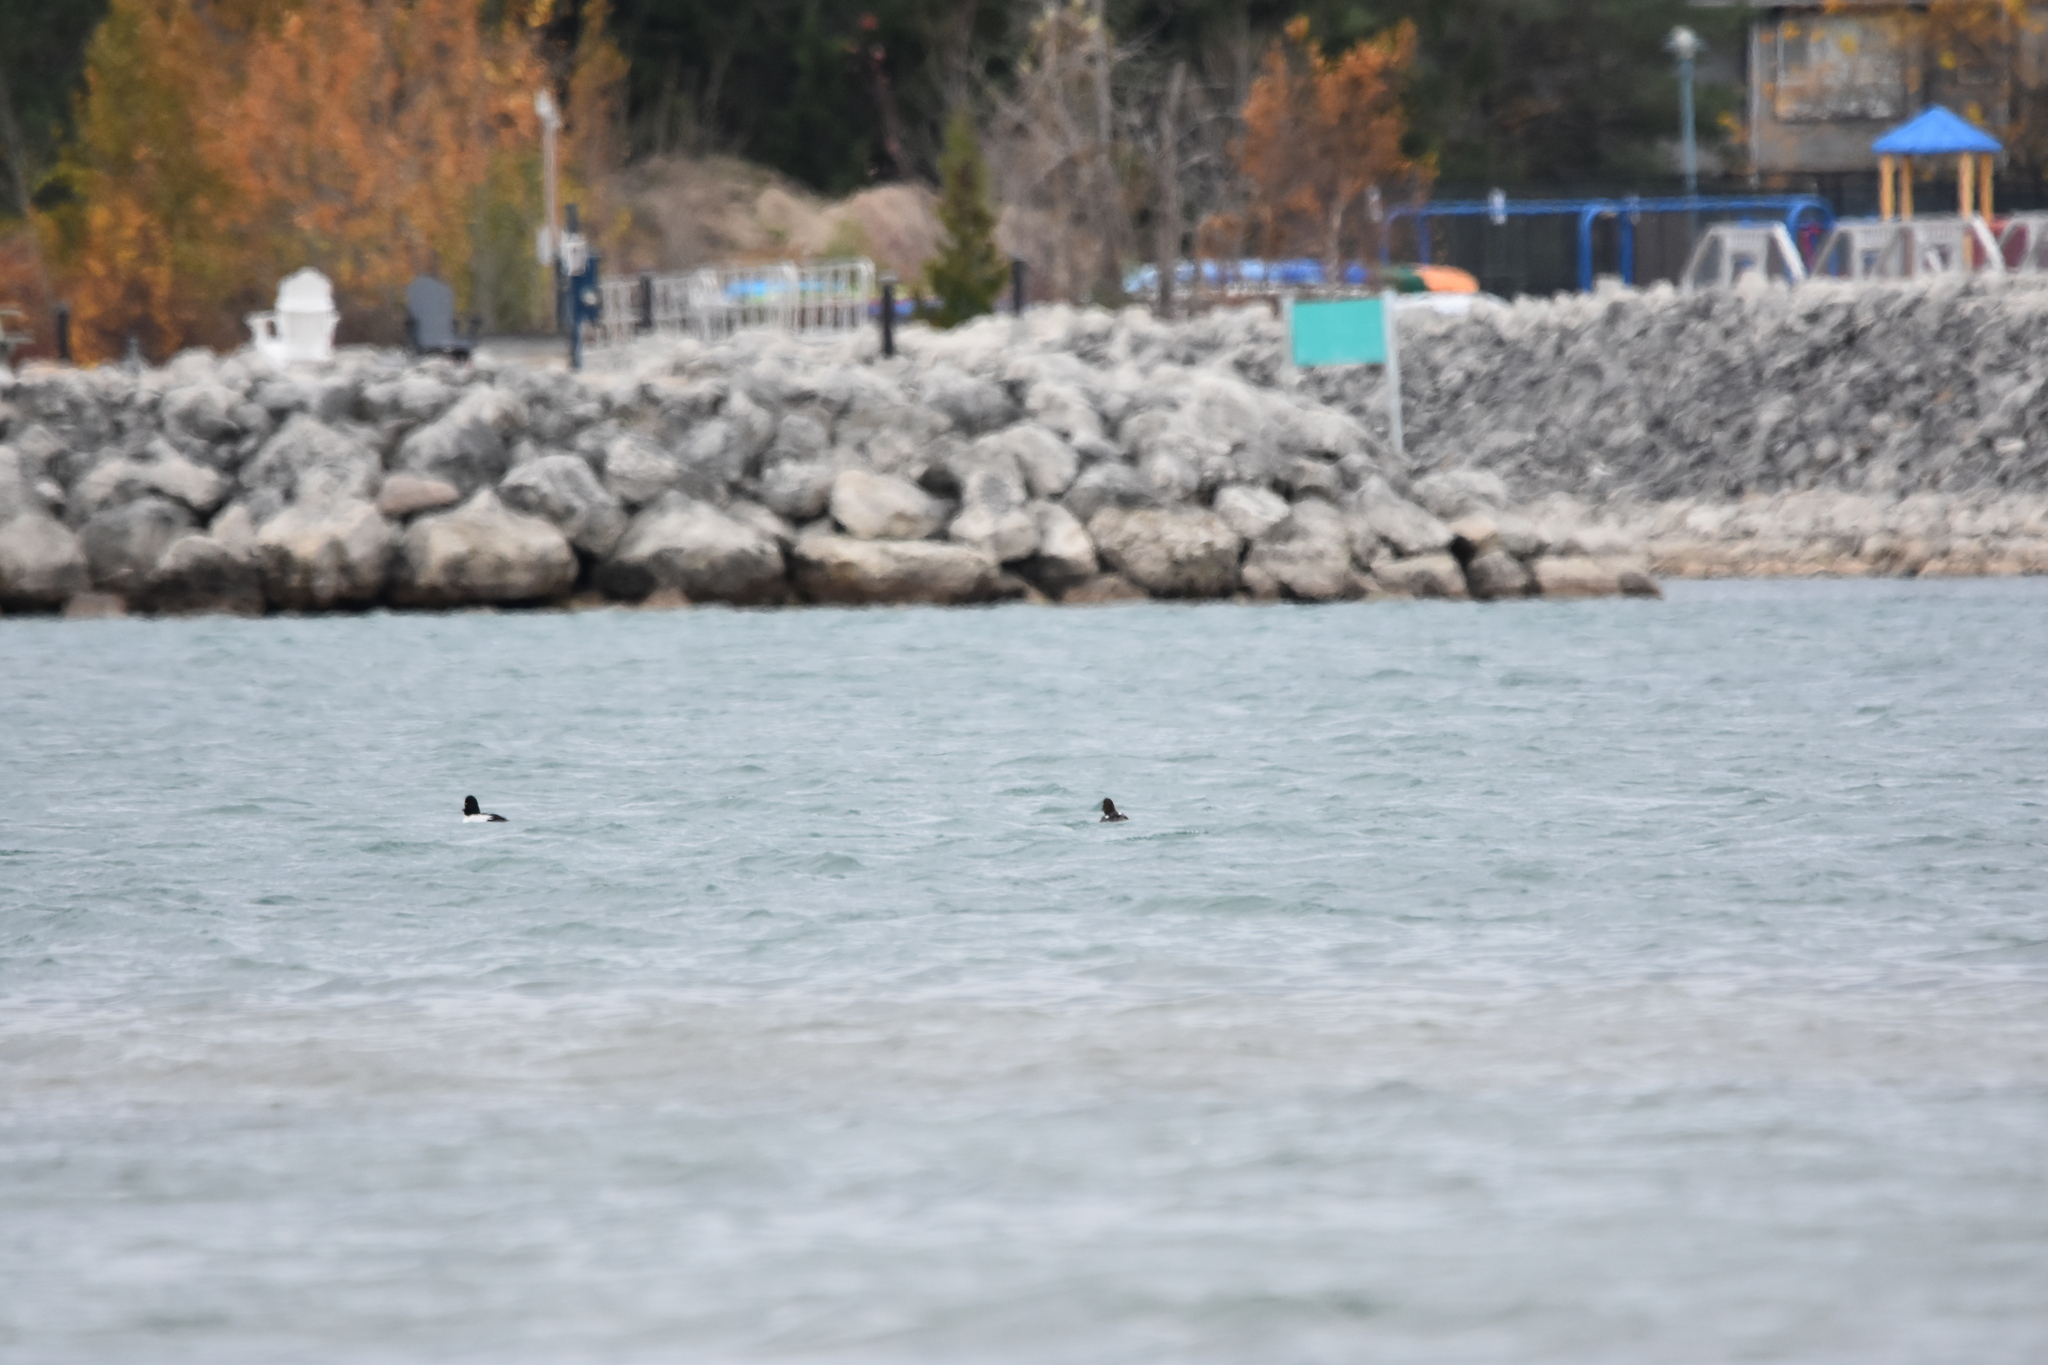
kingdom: Animalia
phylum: Chordata
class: Aves
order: Anseriformes
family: Anatidae
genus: Bucephala
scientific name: Bucephala clangula
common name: Common goldeneye
